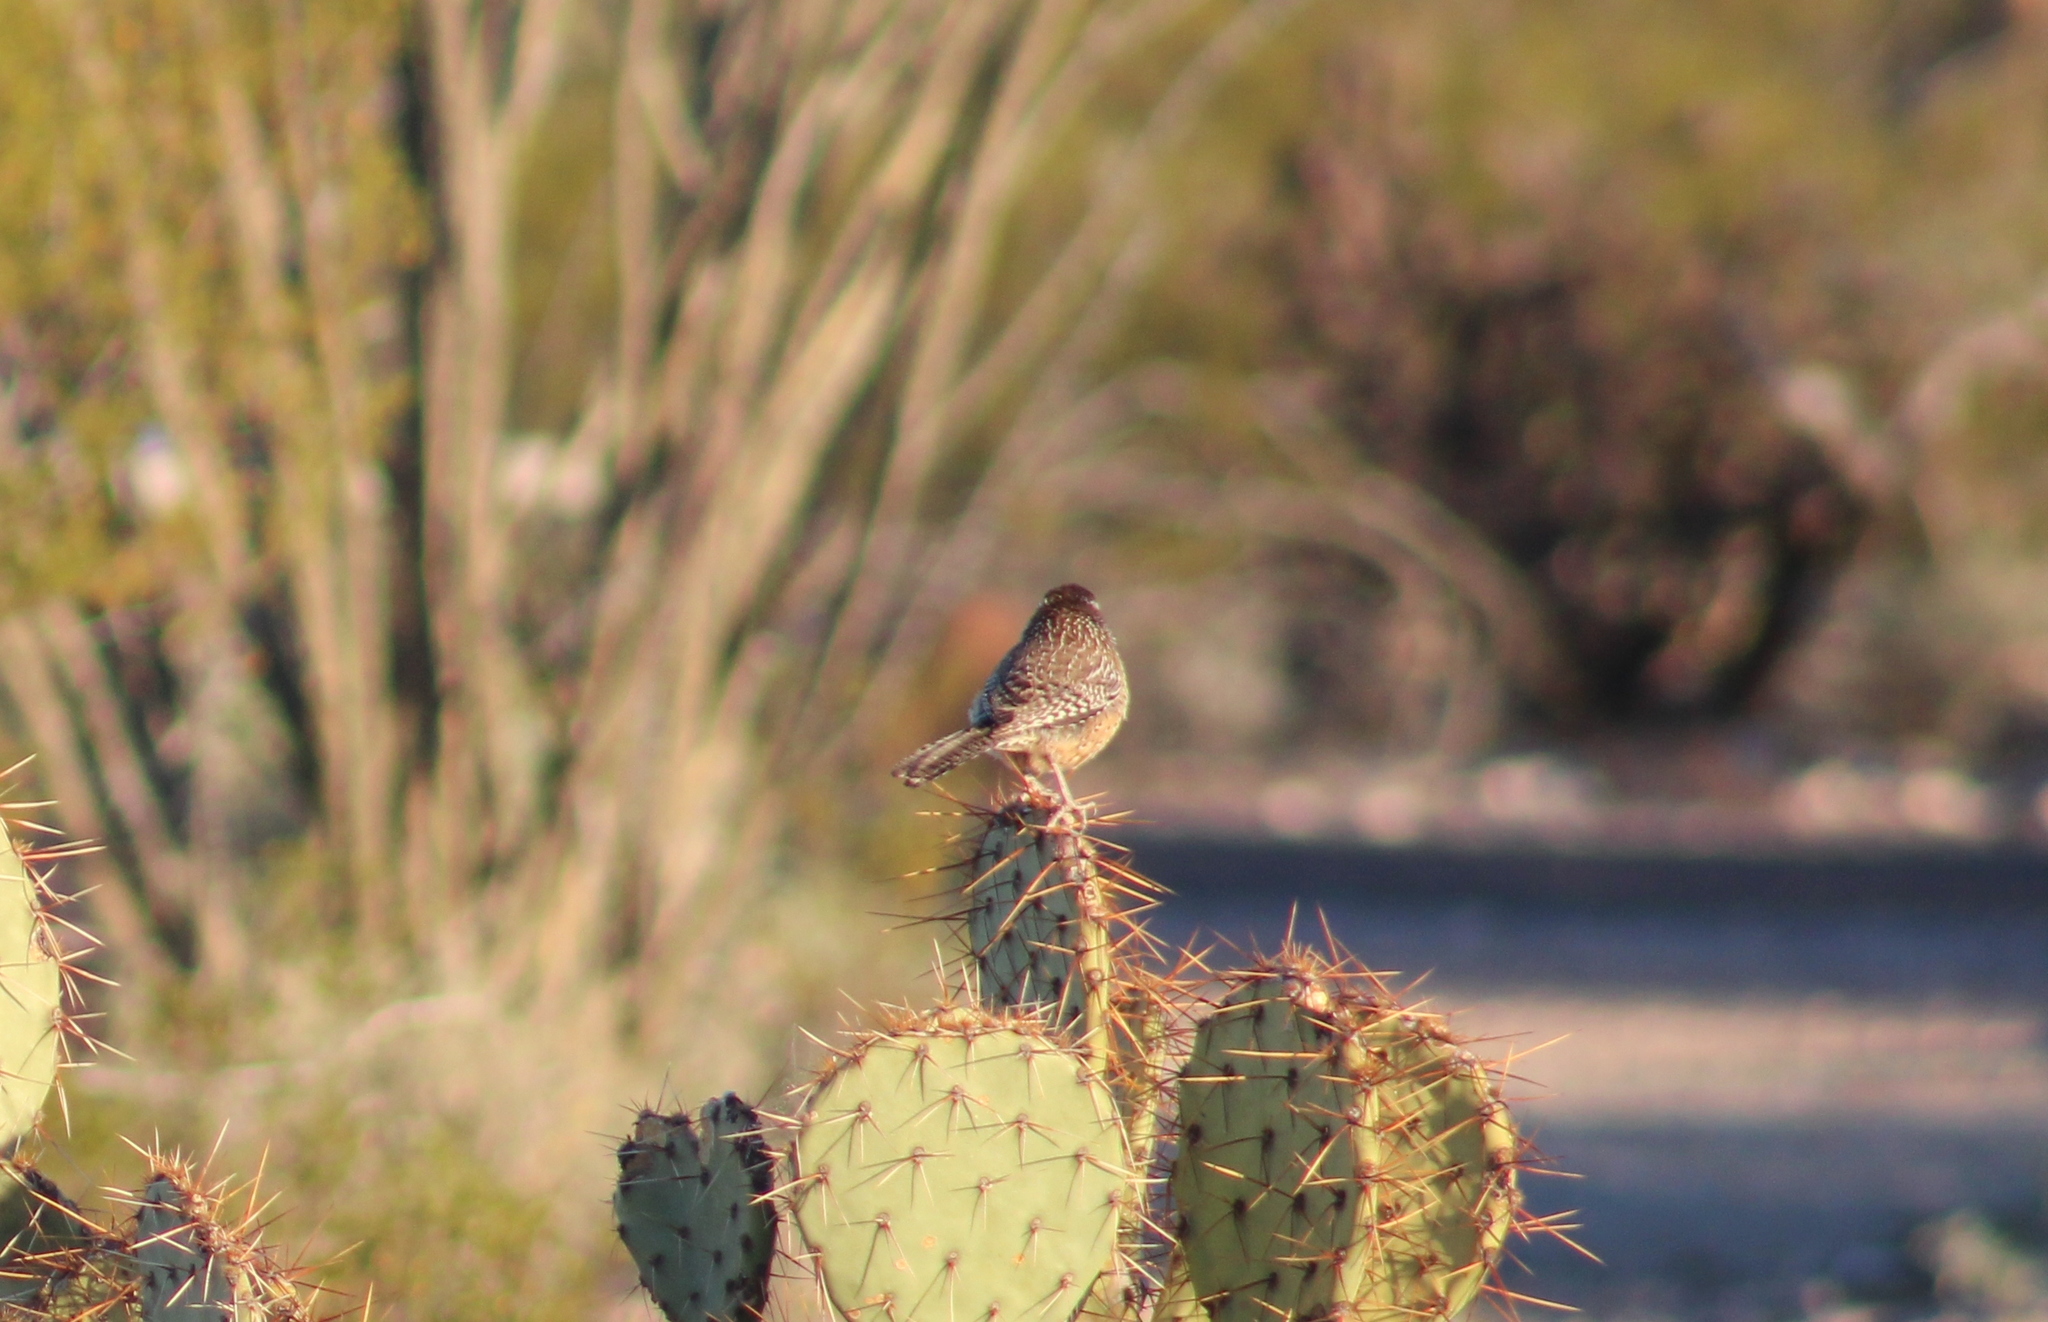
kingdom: Animalia
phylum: Chordata
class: Aves
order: Passeriformes
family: Troglodytidae
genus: Campylorhynchus
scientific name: Campylorhynchus brunneicapillus
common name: Cactus wren
